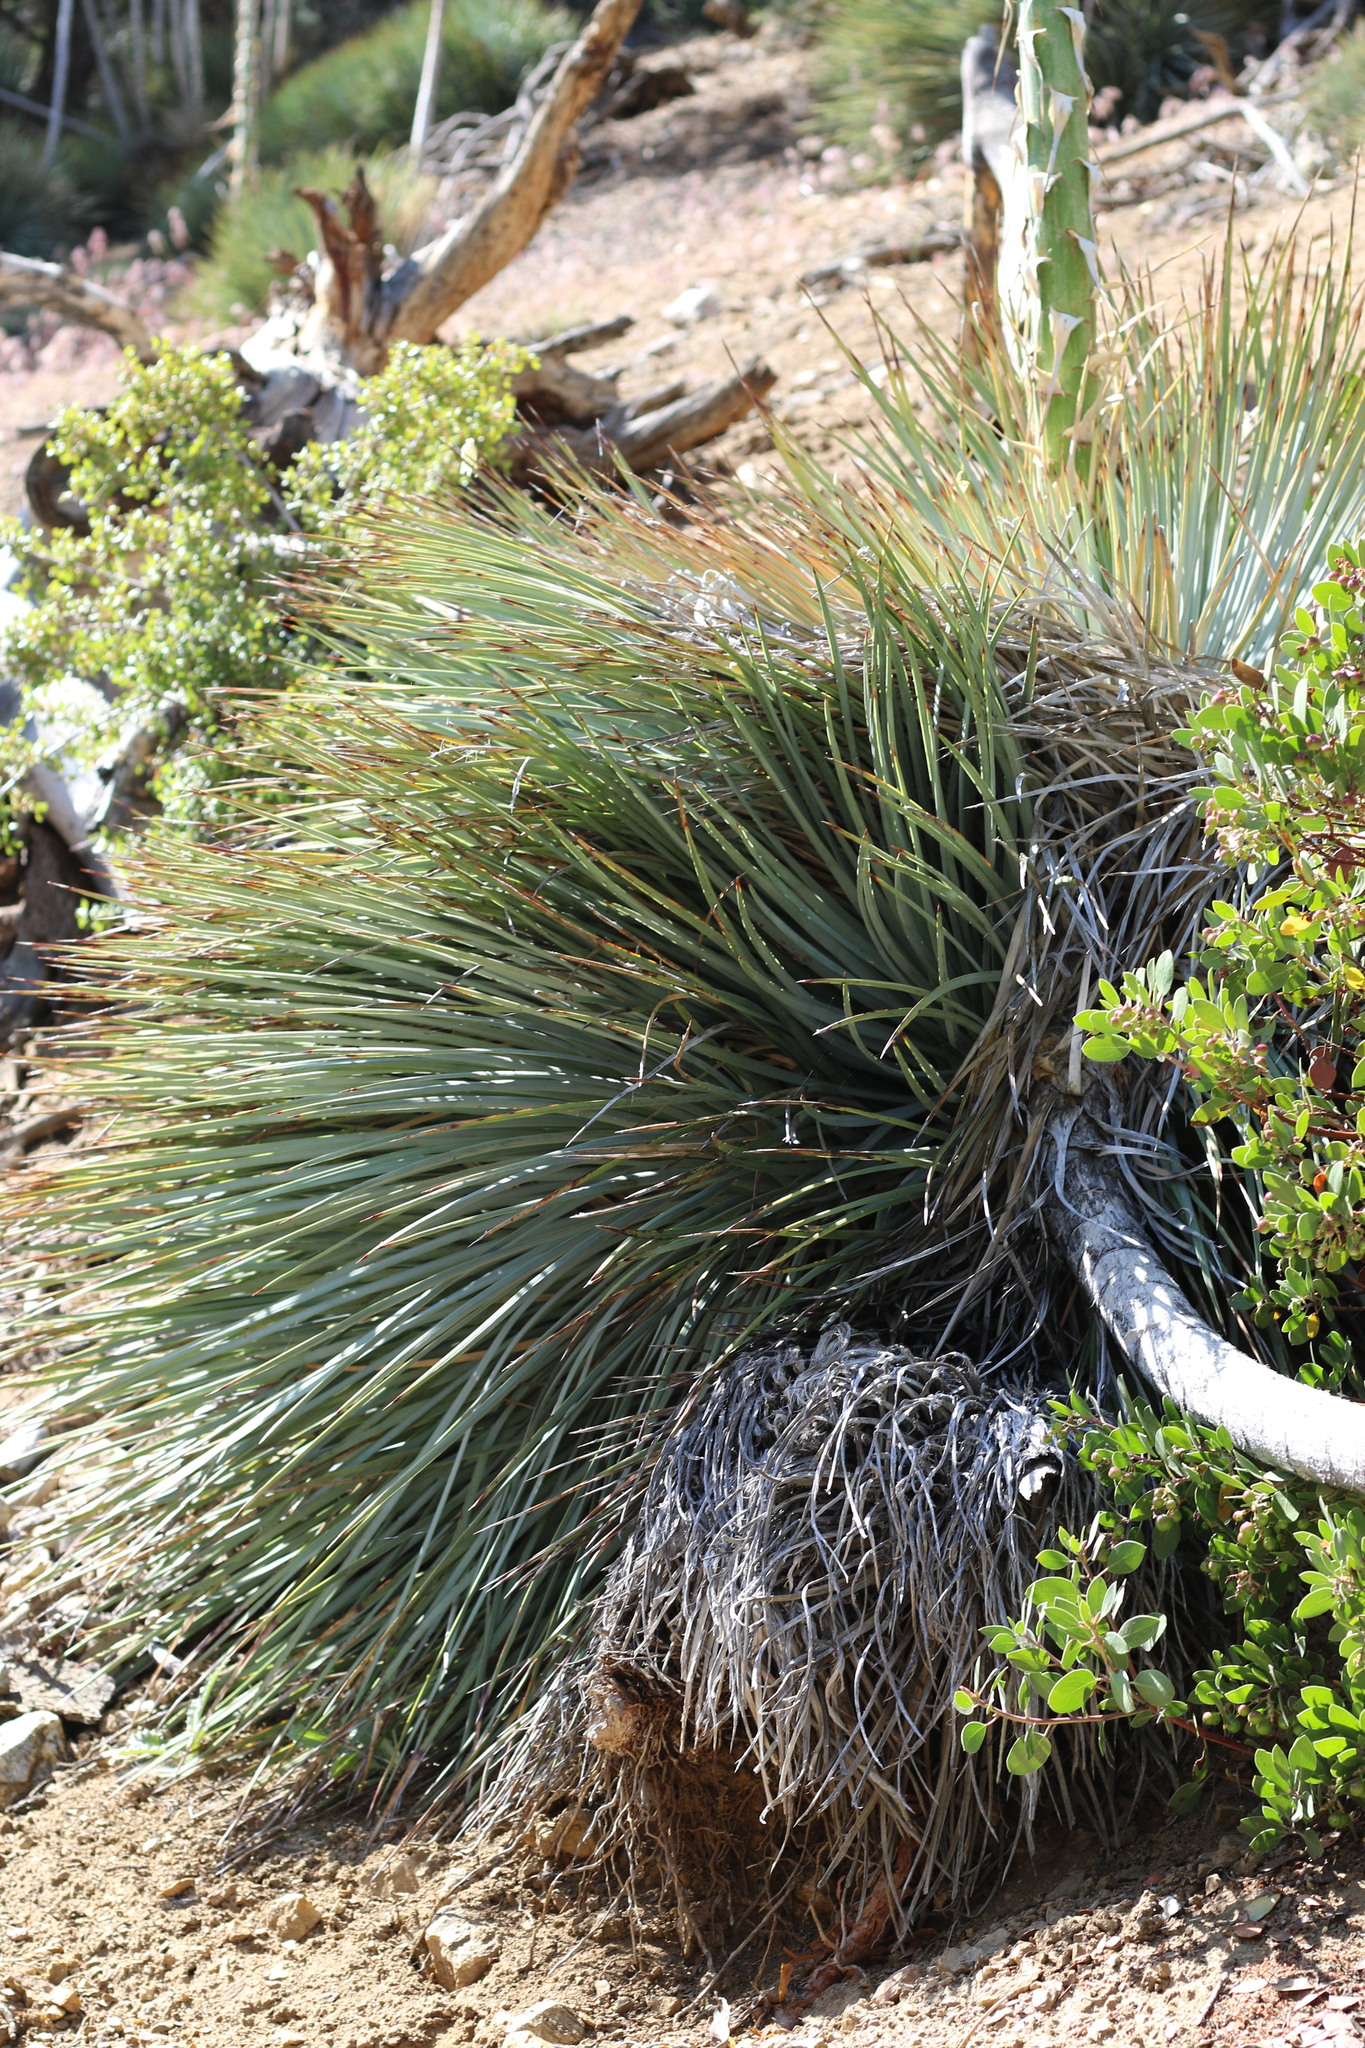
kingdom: Plantae
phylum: Tracheophyta
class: Liliopsida
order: Asparagales
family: Asparagaceae
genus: Hesperoyucca
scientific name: Hesperoyucca whipplei
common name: Our lord's-candle
